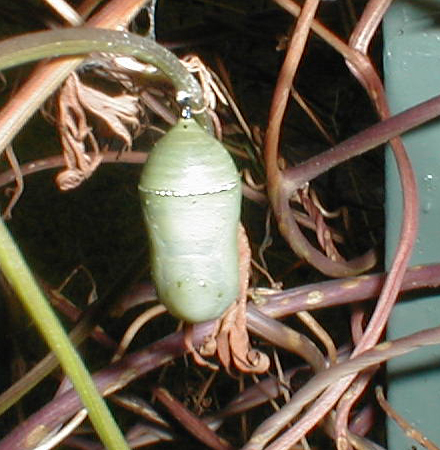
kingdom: Animalia
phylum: Arthropoda
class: Insecta
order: Lepidoptera
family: Nymphalidae
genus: Danaus
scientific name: Danaus plexippus
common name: Monarch
